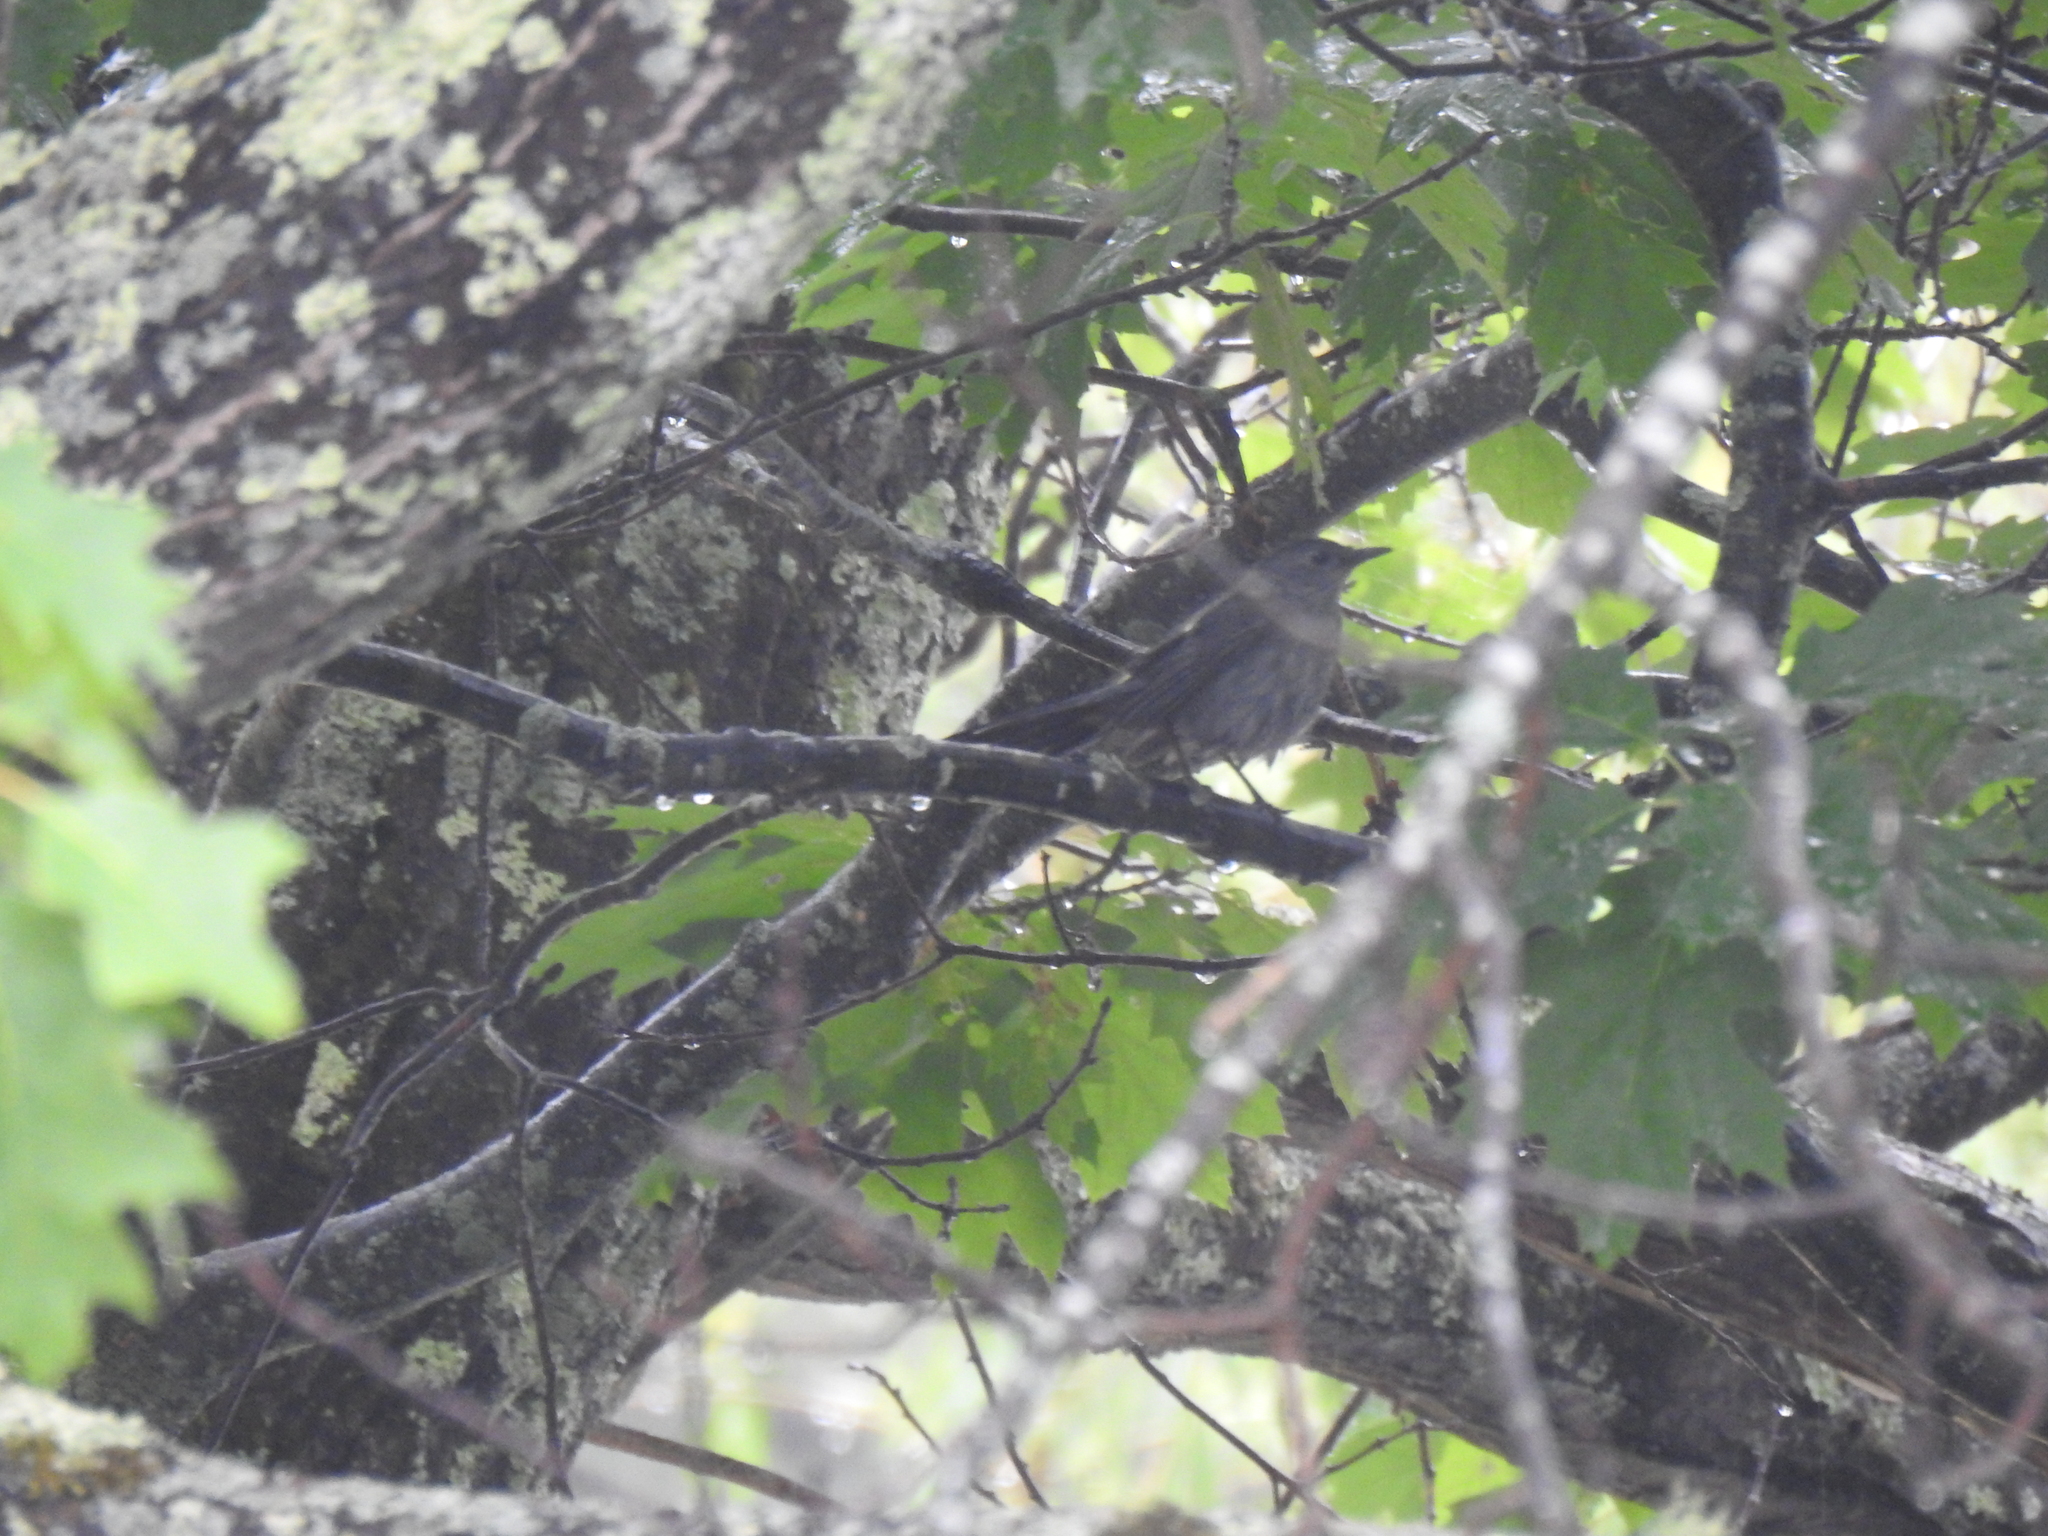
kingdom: Animalia
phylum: Chordata
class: Aves
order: Passeriformes
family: Mimidae
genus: Dumetella
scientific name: Dumetella carolinensis
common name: Gray catbird
